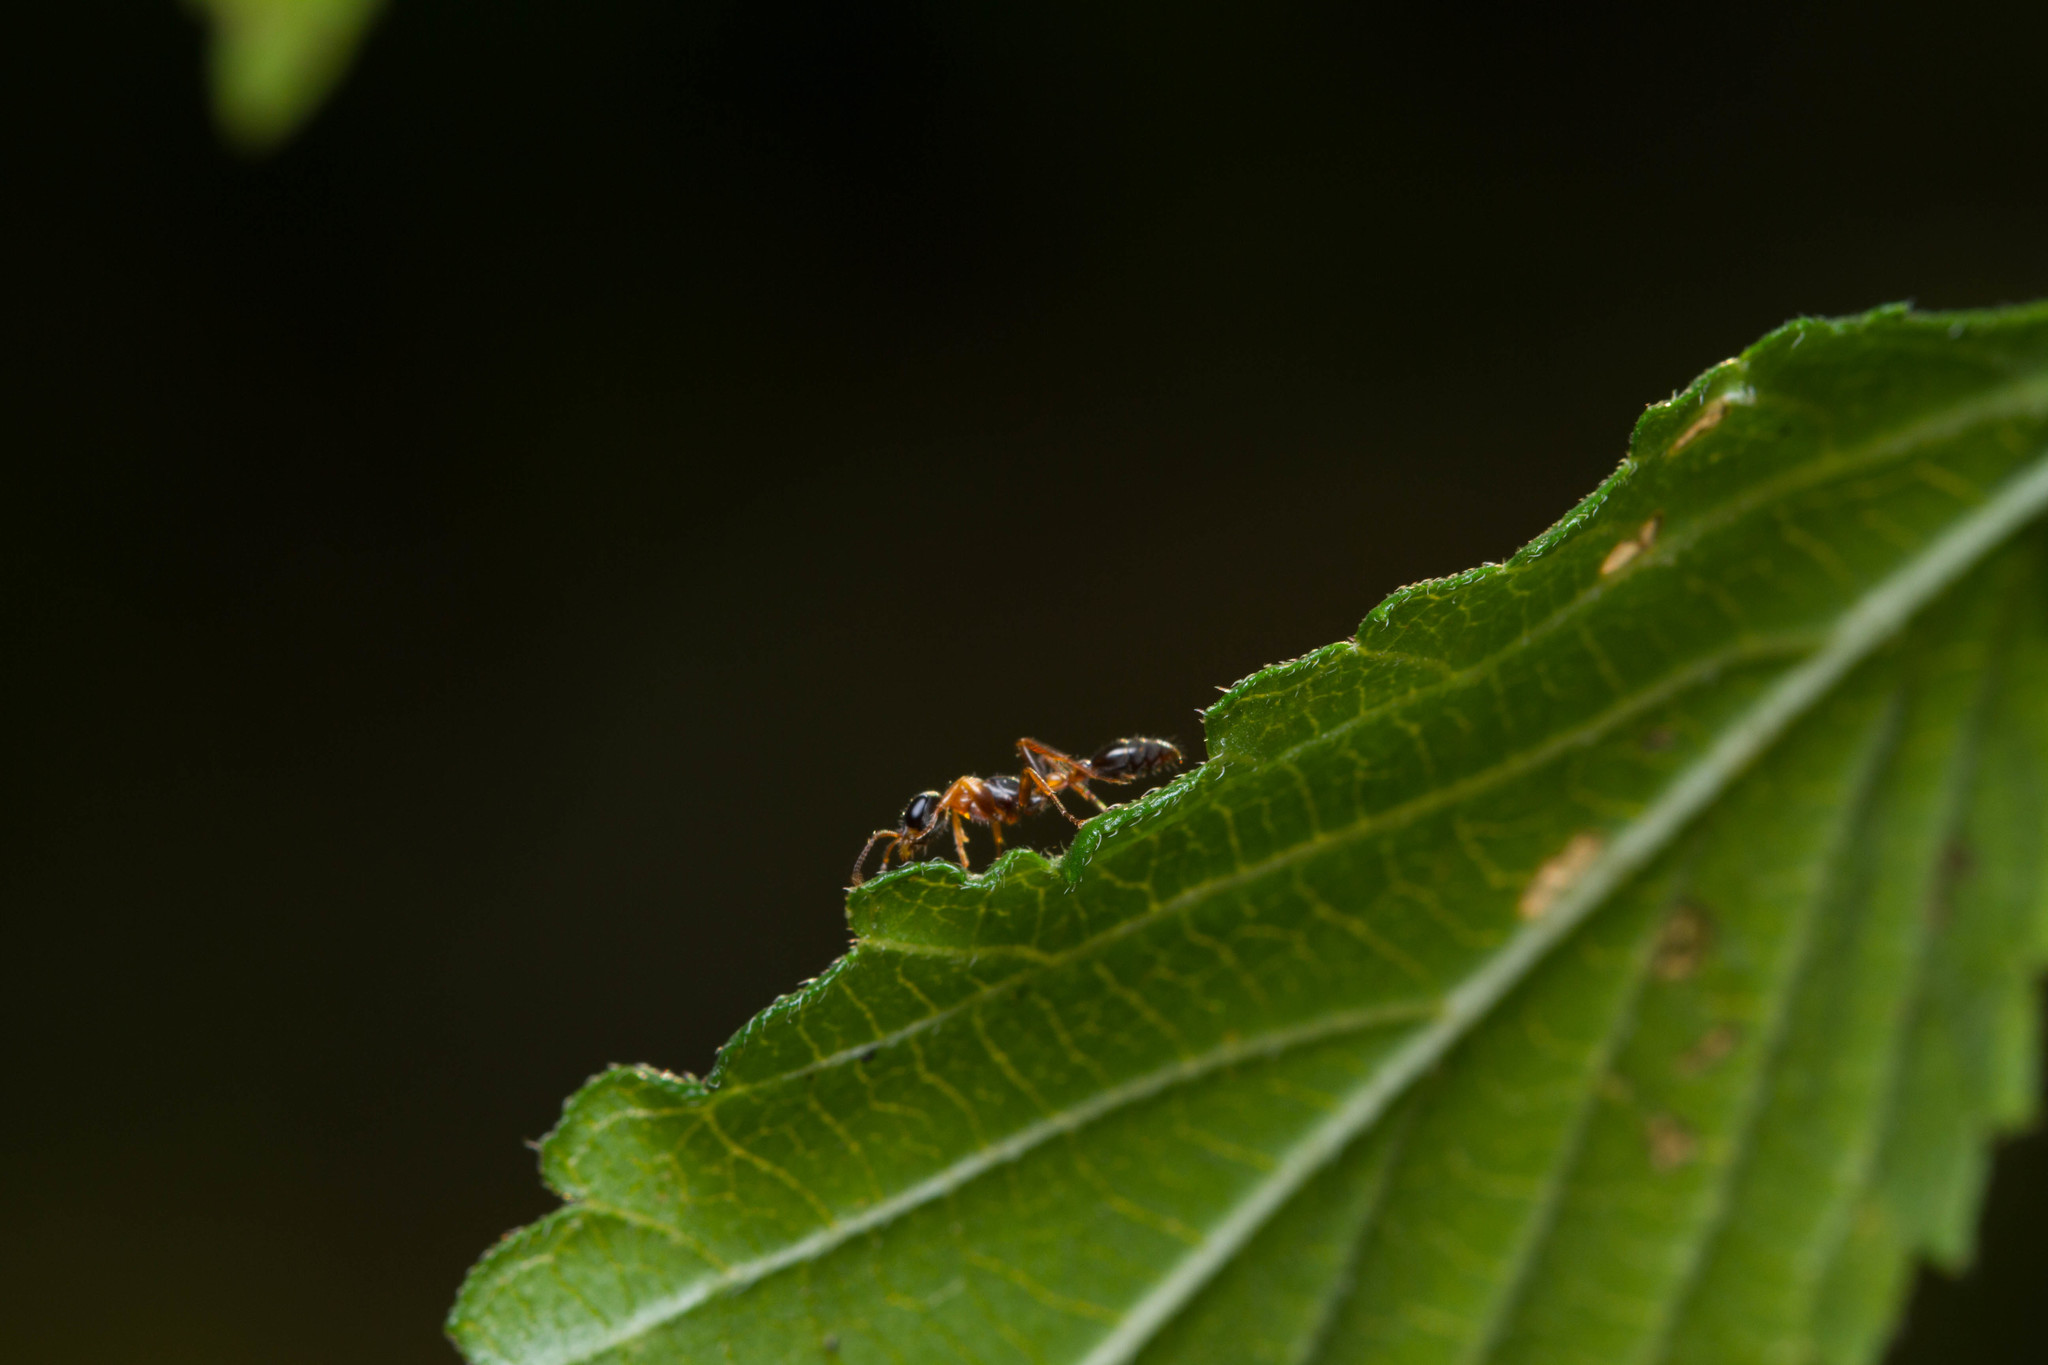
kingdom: Animalia
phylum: Arthropoda
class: Insecta
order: Hymenoptera
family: Formicidae
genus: Pseudomyrmex
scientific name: Pseudomyrmex gracilis
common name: Graceful twig ant
